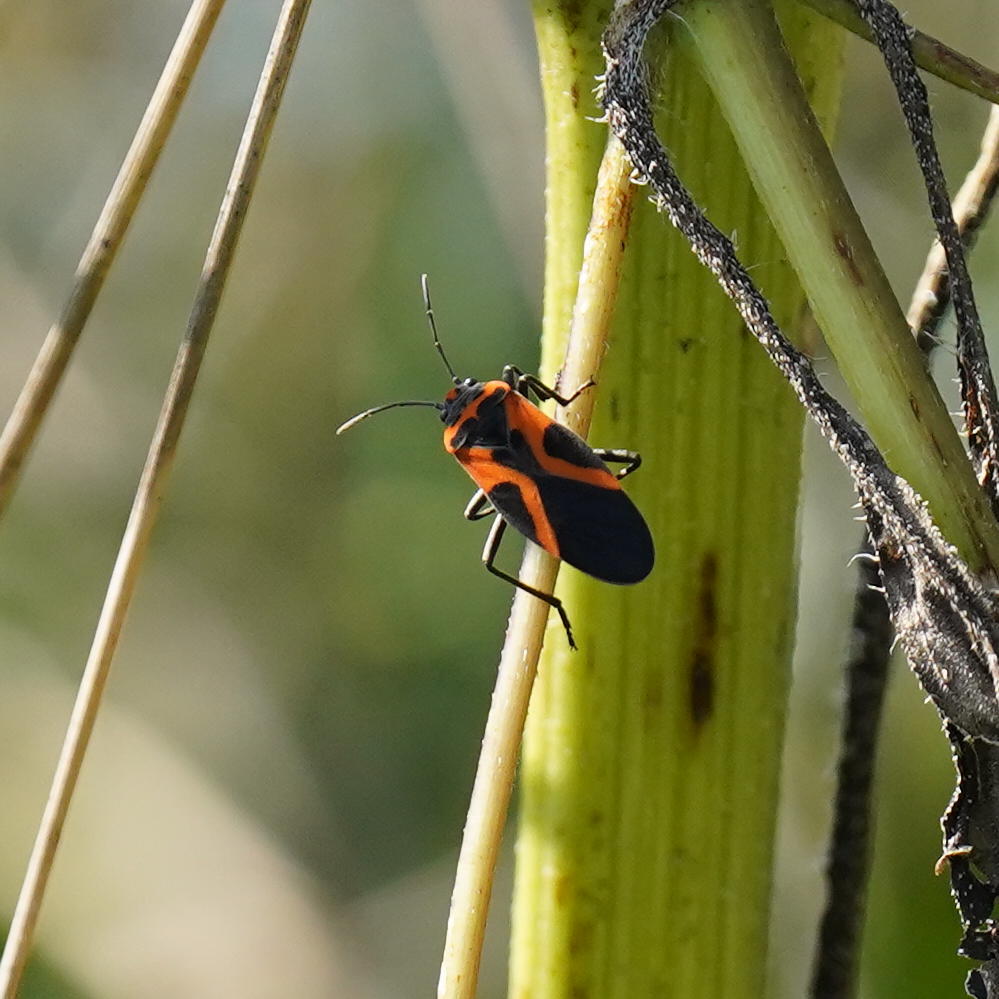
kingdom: Animalia
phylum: Arthropoda
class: Insecta
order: Hemiptera
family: Lygaeidae
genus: Lygaeus
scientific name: Lygaeus turcicus
